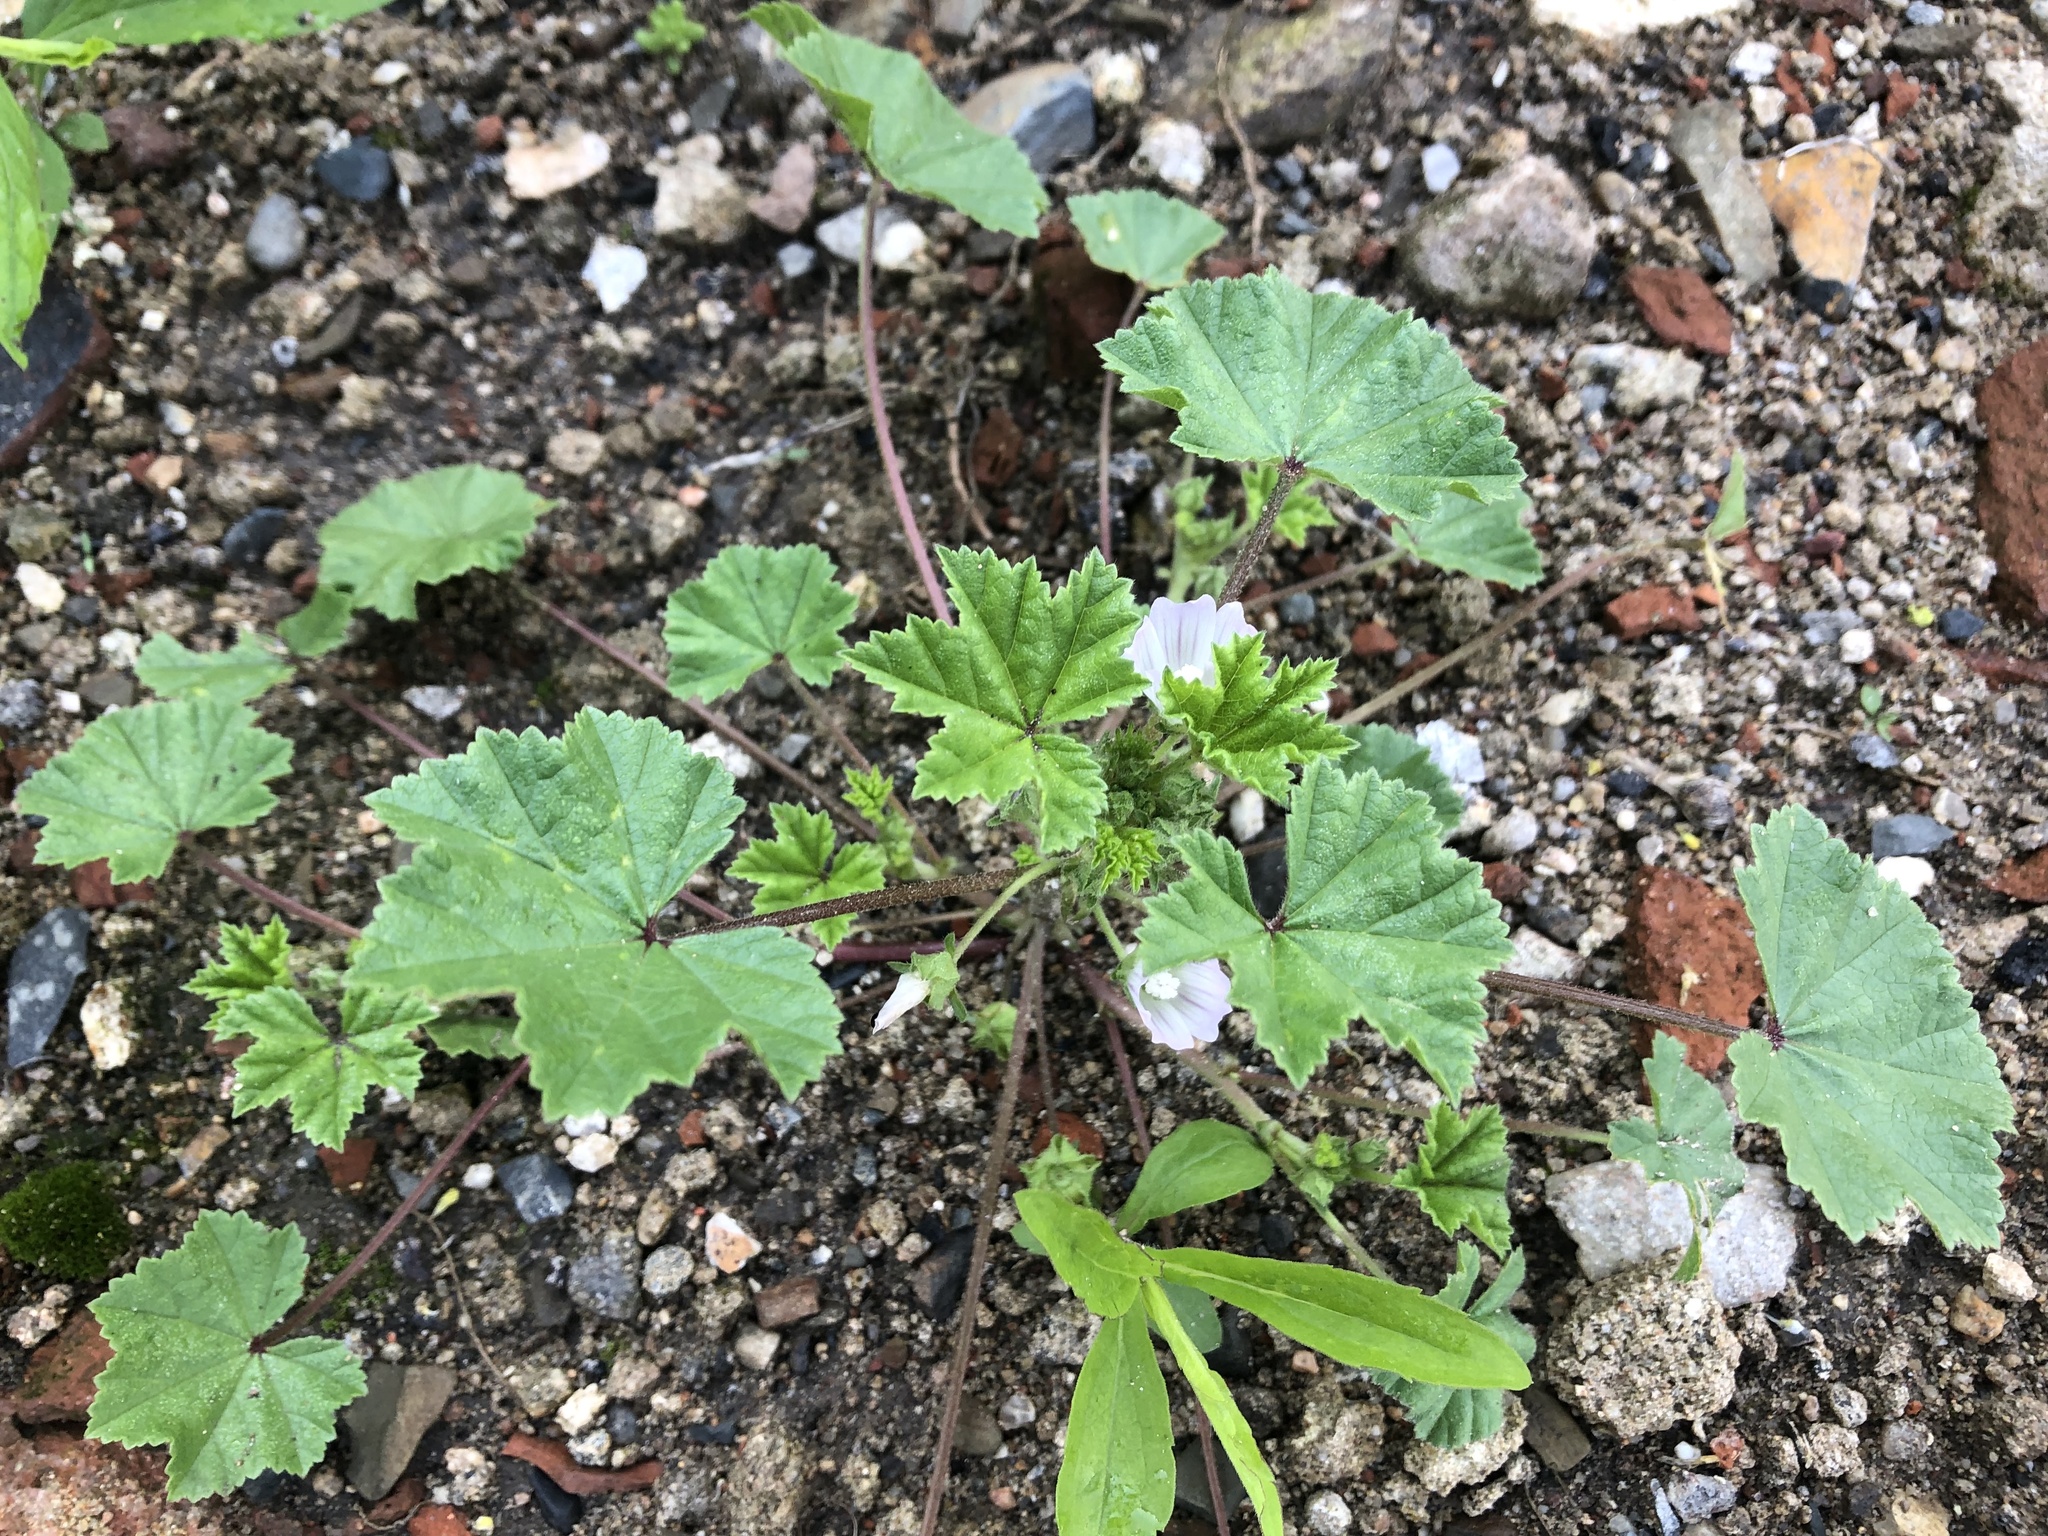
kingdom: Plantae
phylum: Tracheophyta
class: Magnoliopsida
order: Malvales
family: Malvaceae
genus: Malva
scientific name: Malva neglecta
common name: Common mallow
